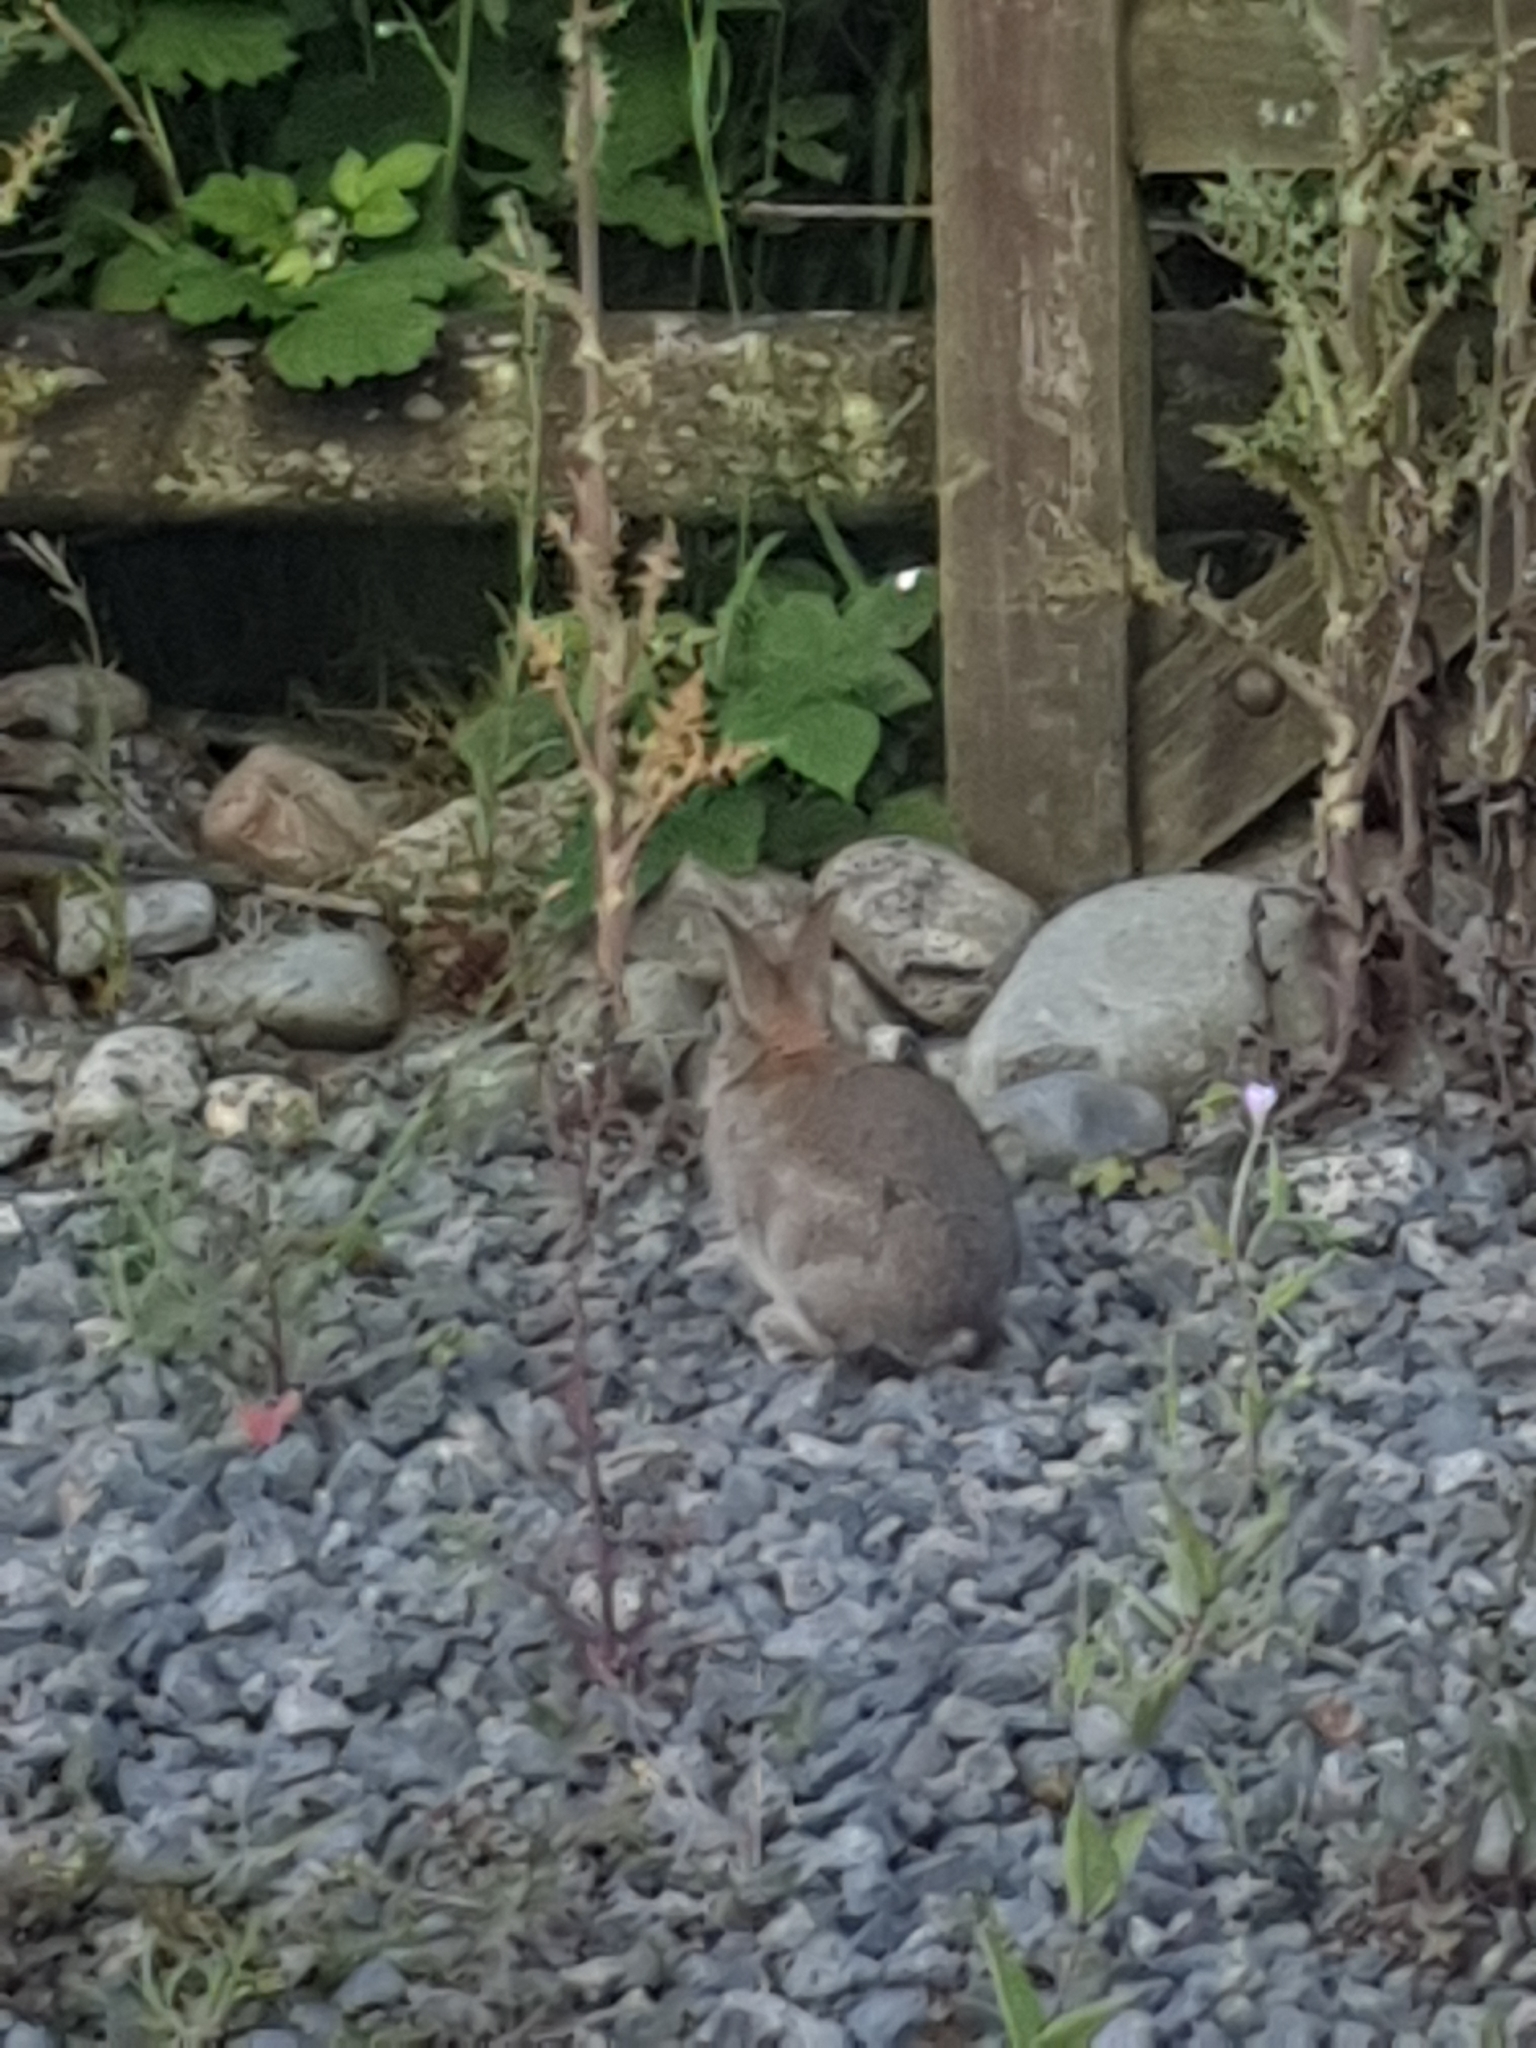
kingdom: Animalia
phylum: Chordata
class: Mammalia
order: Lagomorpha
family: Leporidae
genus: Oryctolagus
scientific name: Oryctolagus cuniculus
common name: European rabbit
